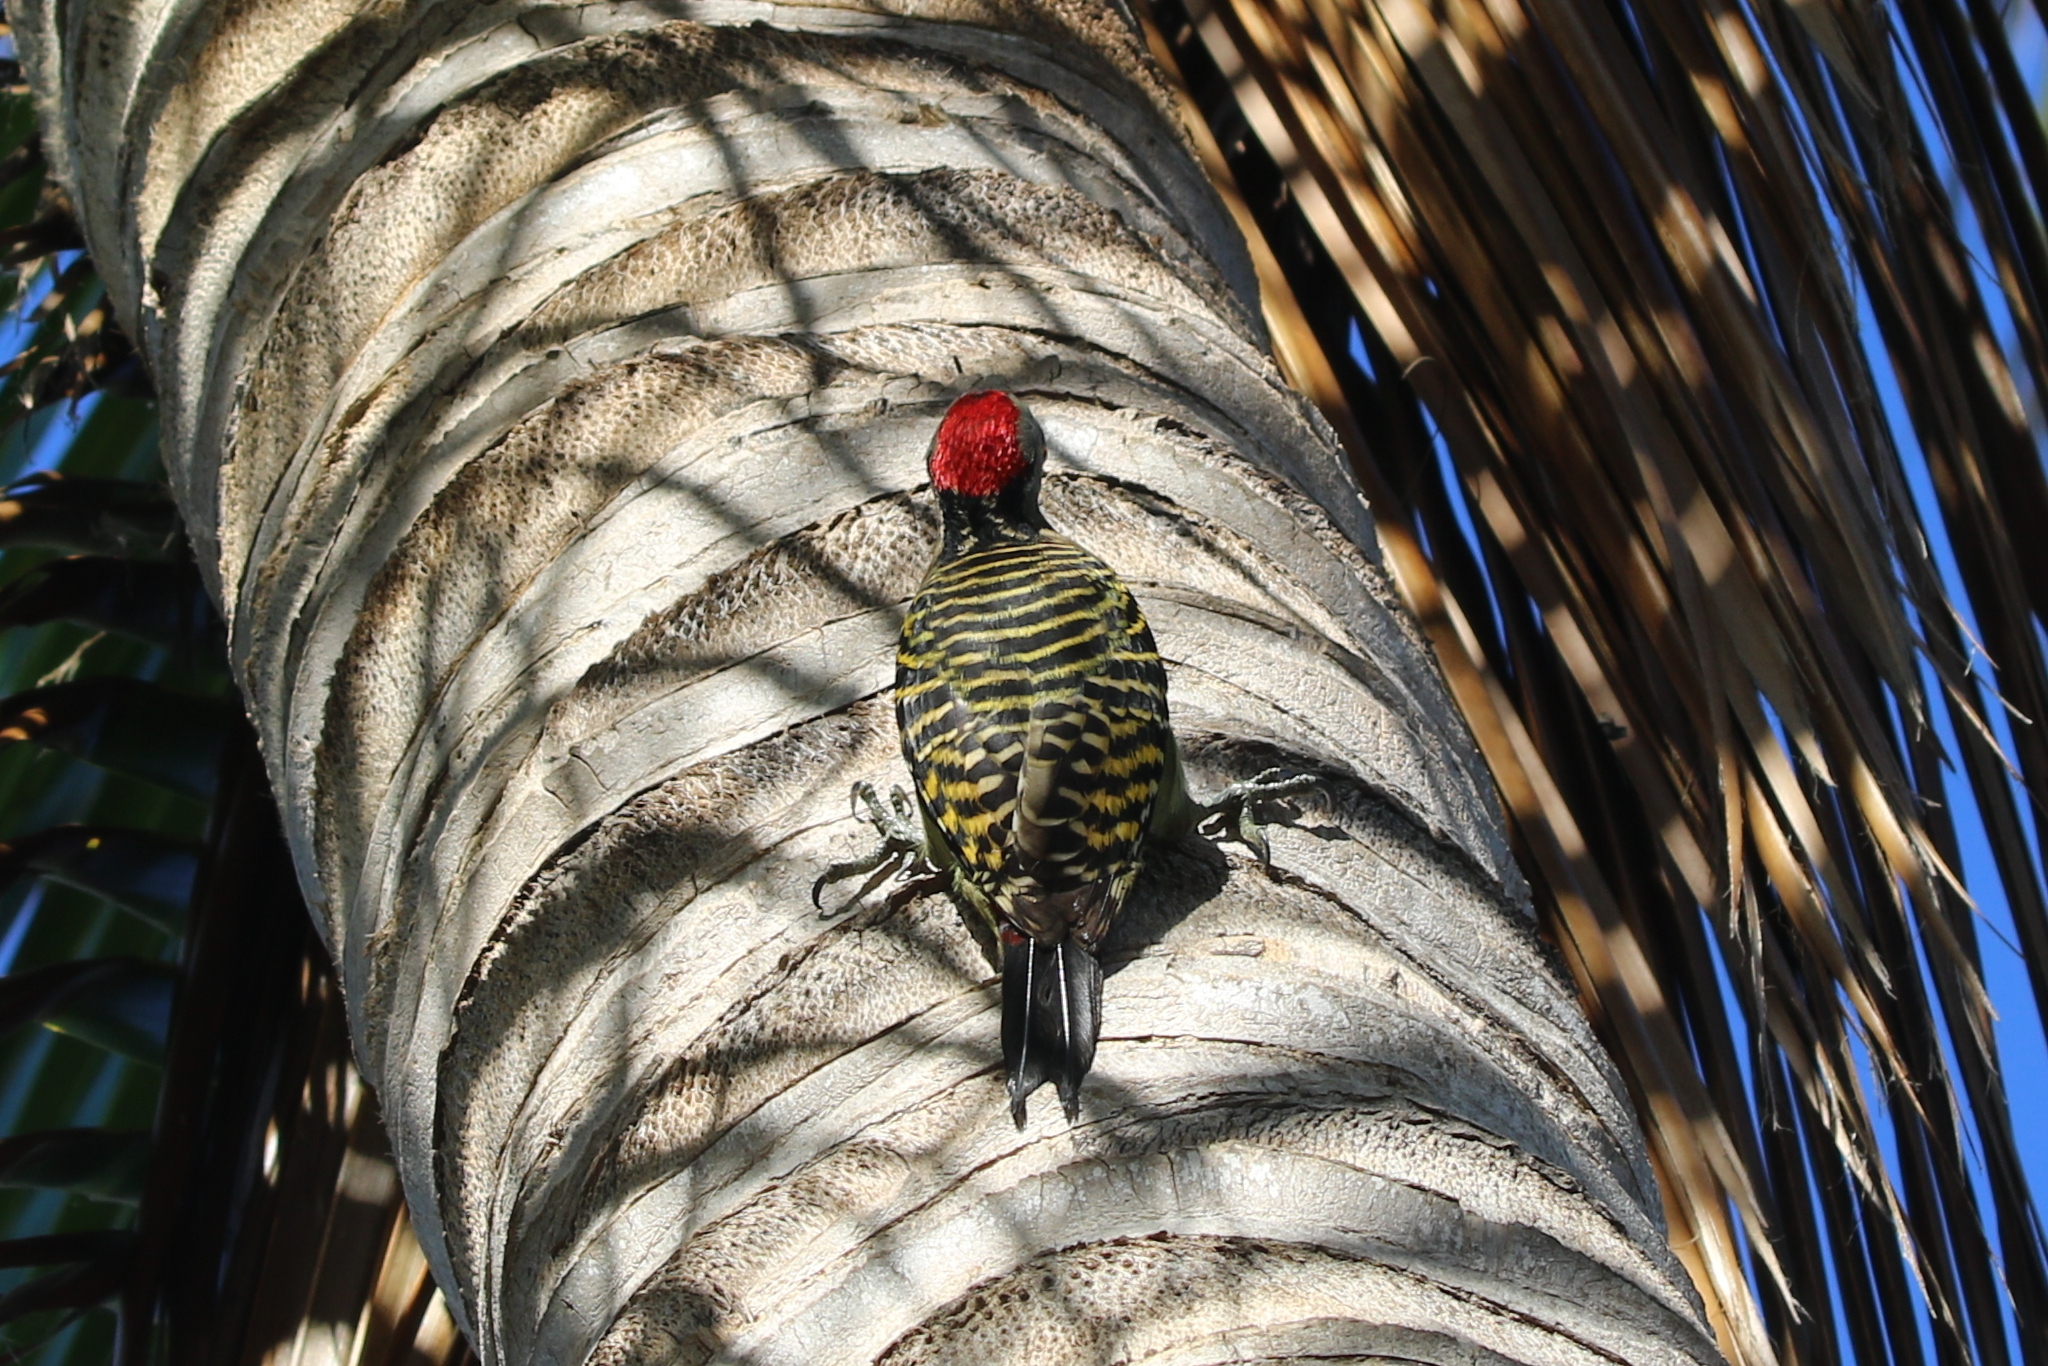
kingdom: Animalia
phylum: Chordata
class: Aves
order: Piciformes
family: Picidae
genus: Melanerpes
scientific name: Melanerpes striatus
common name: Hispaniolan woodpecker
